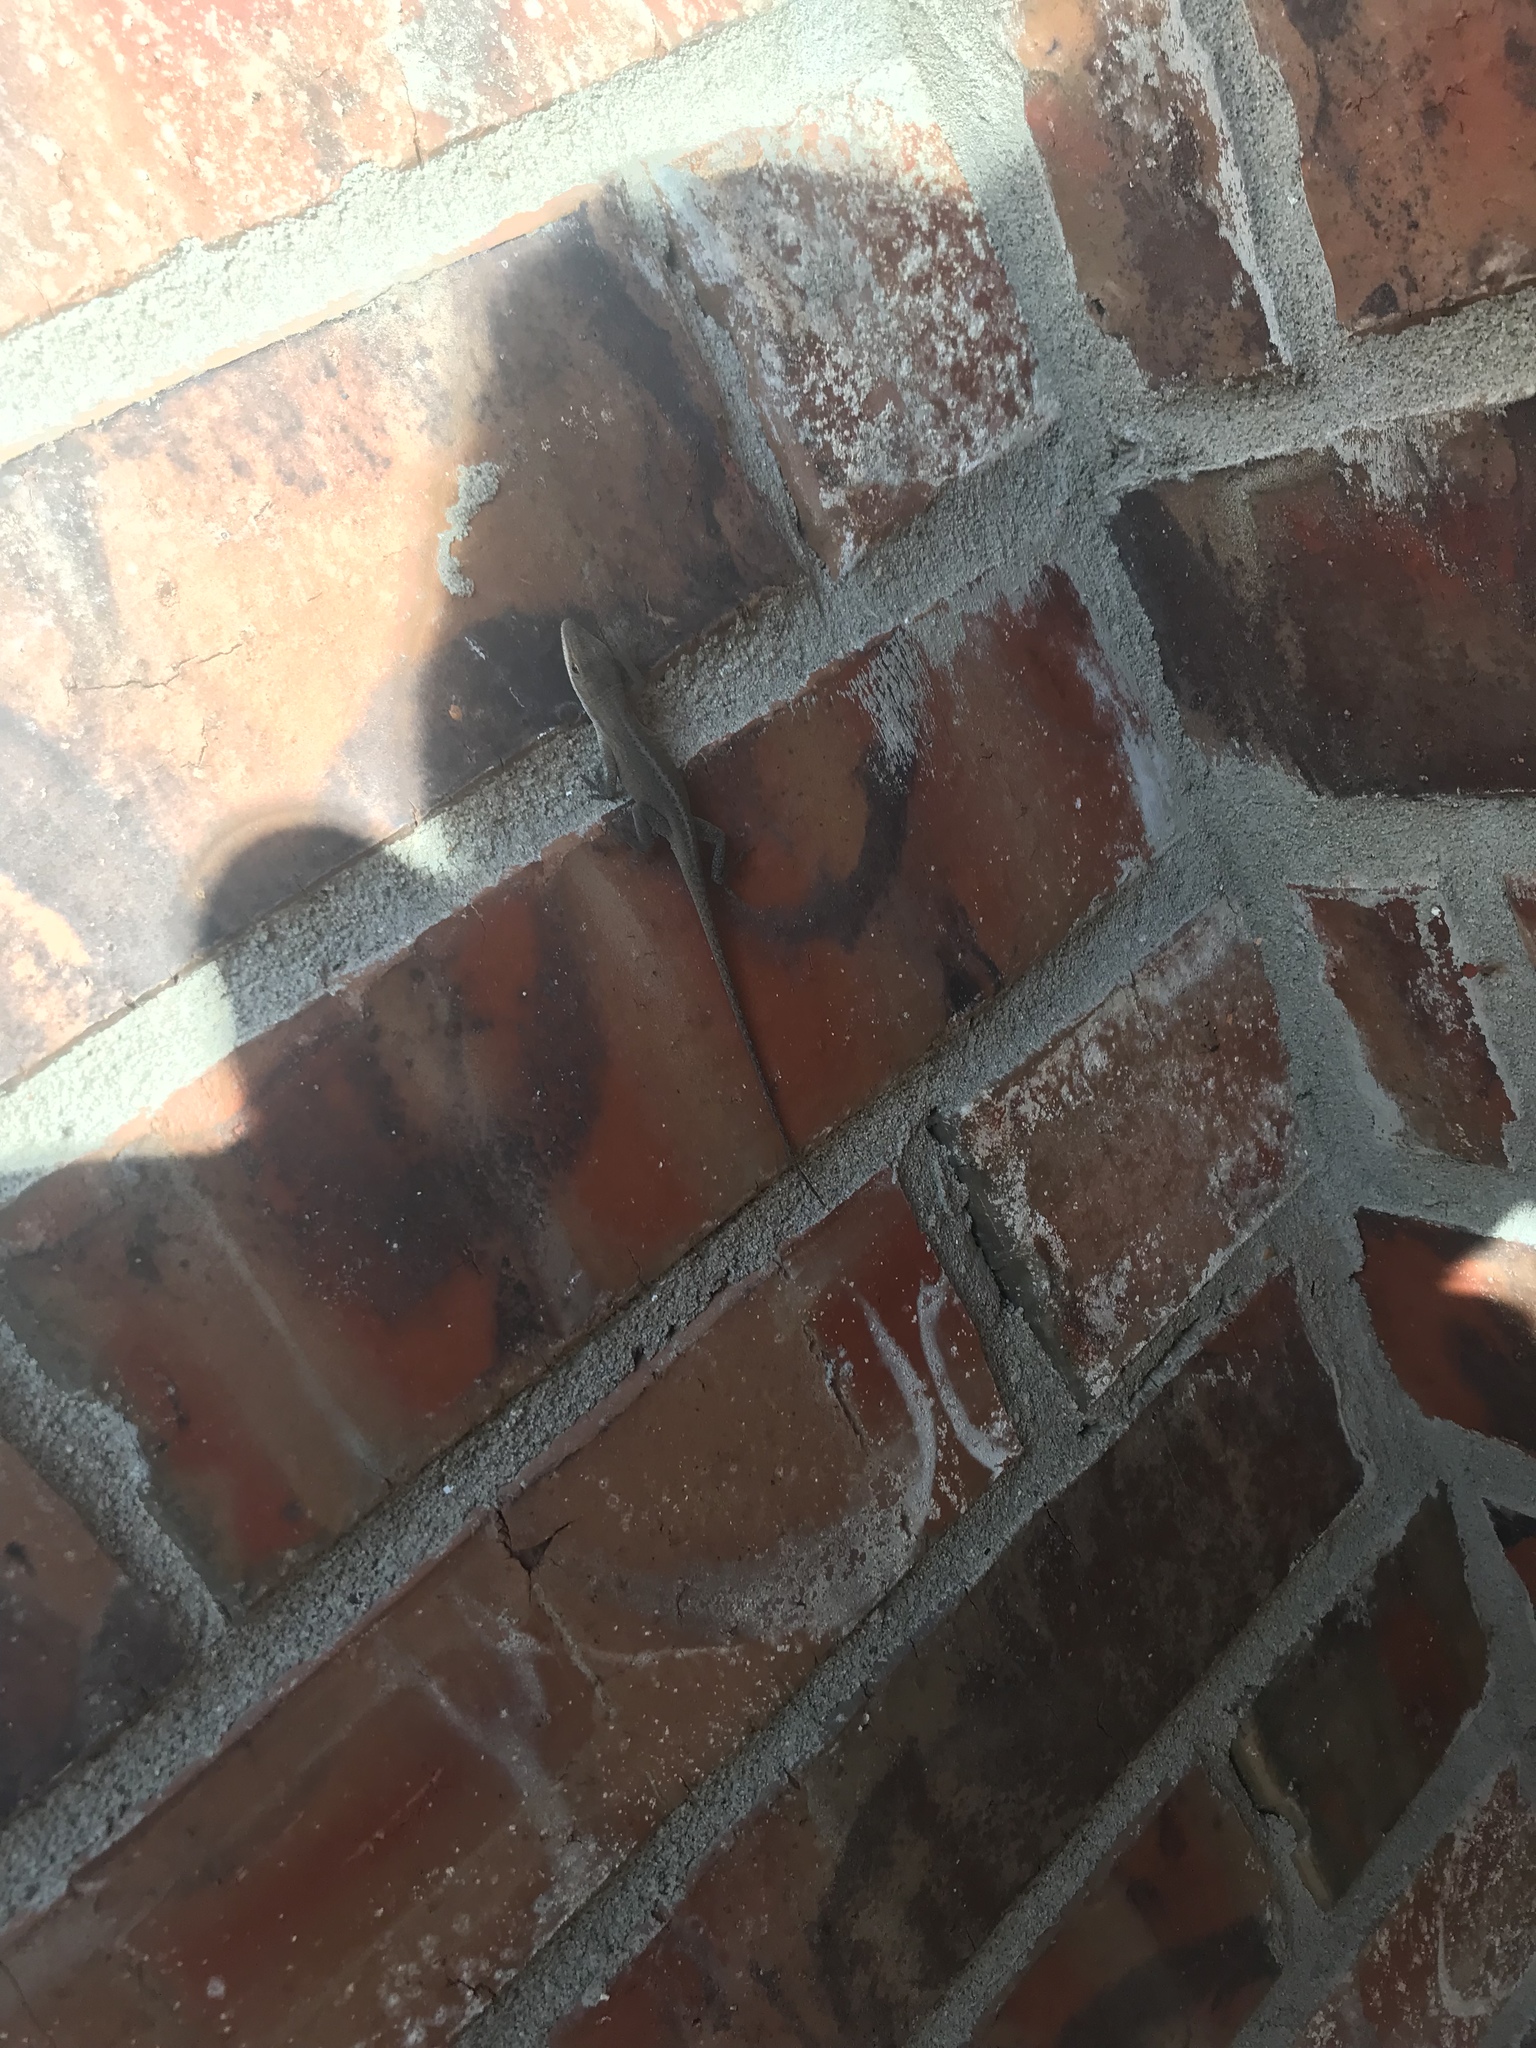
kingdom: Animalia
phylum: Chordata
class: Squamata
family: Dactyloidae
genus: Anolis
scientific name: Anolis carolinensis
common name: Green anole
